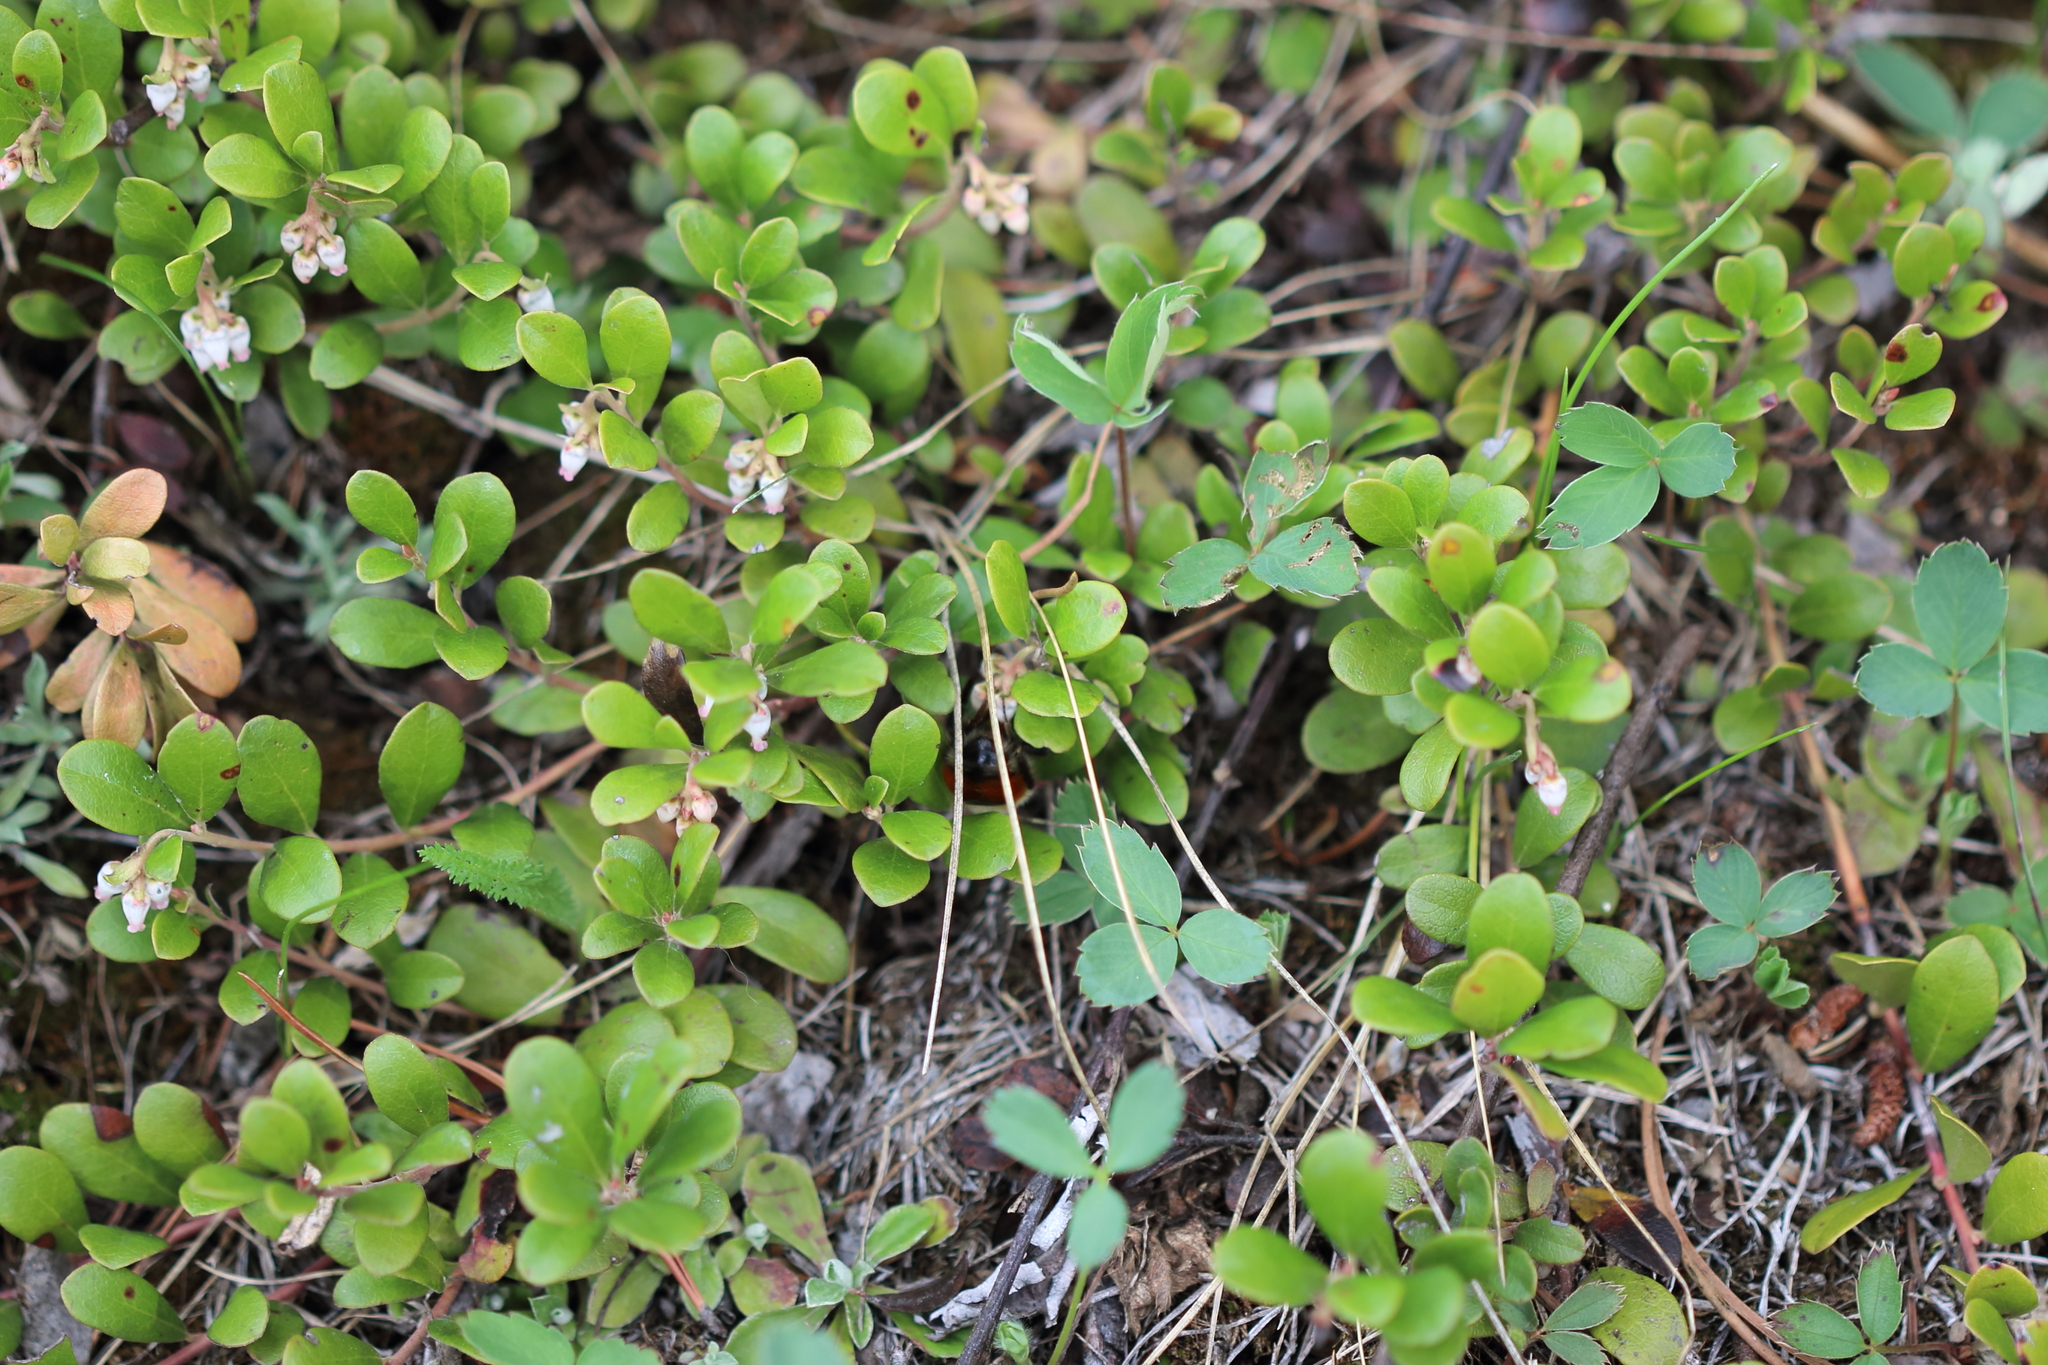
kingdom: Plantae
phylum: Tracheophyta
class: Magnoliopsida
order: Ericales
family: Ericaceae
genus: Arctostaphylos
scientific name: Arctostaphylos uva-ursi
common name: Bearberry
